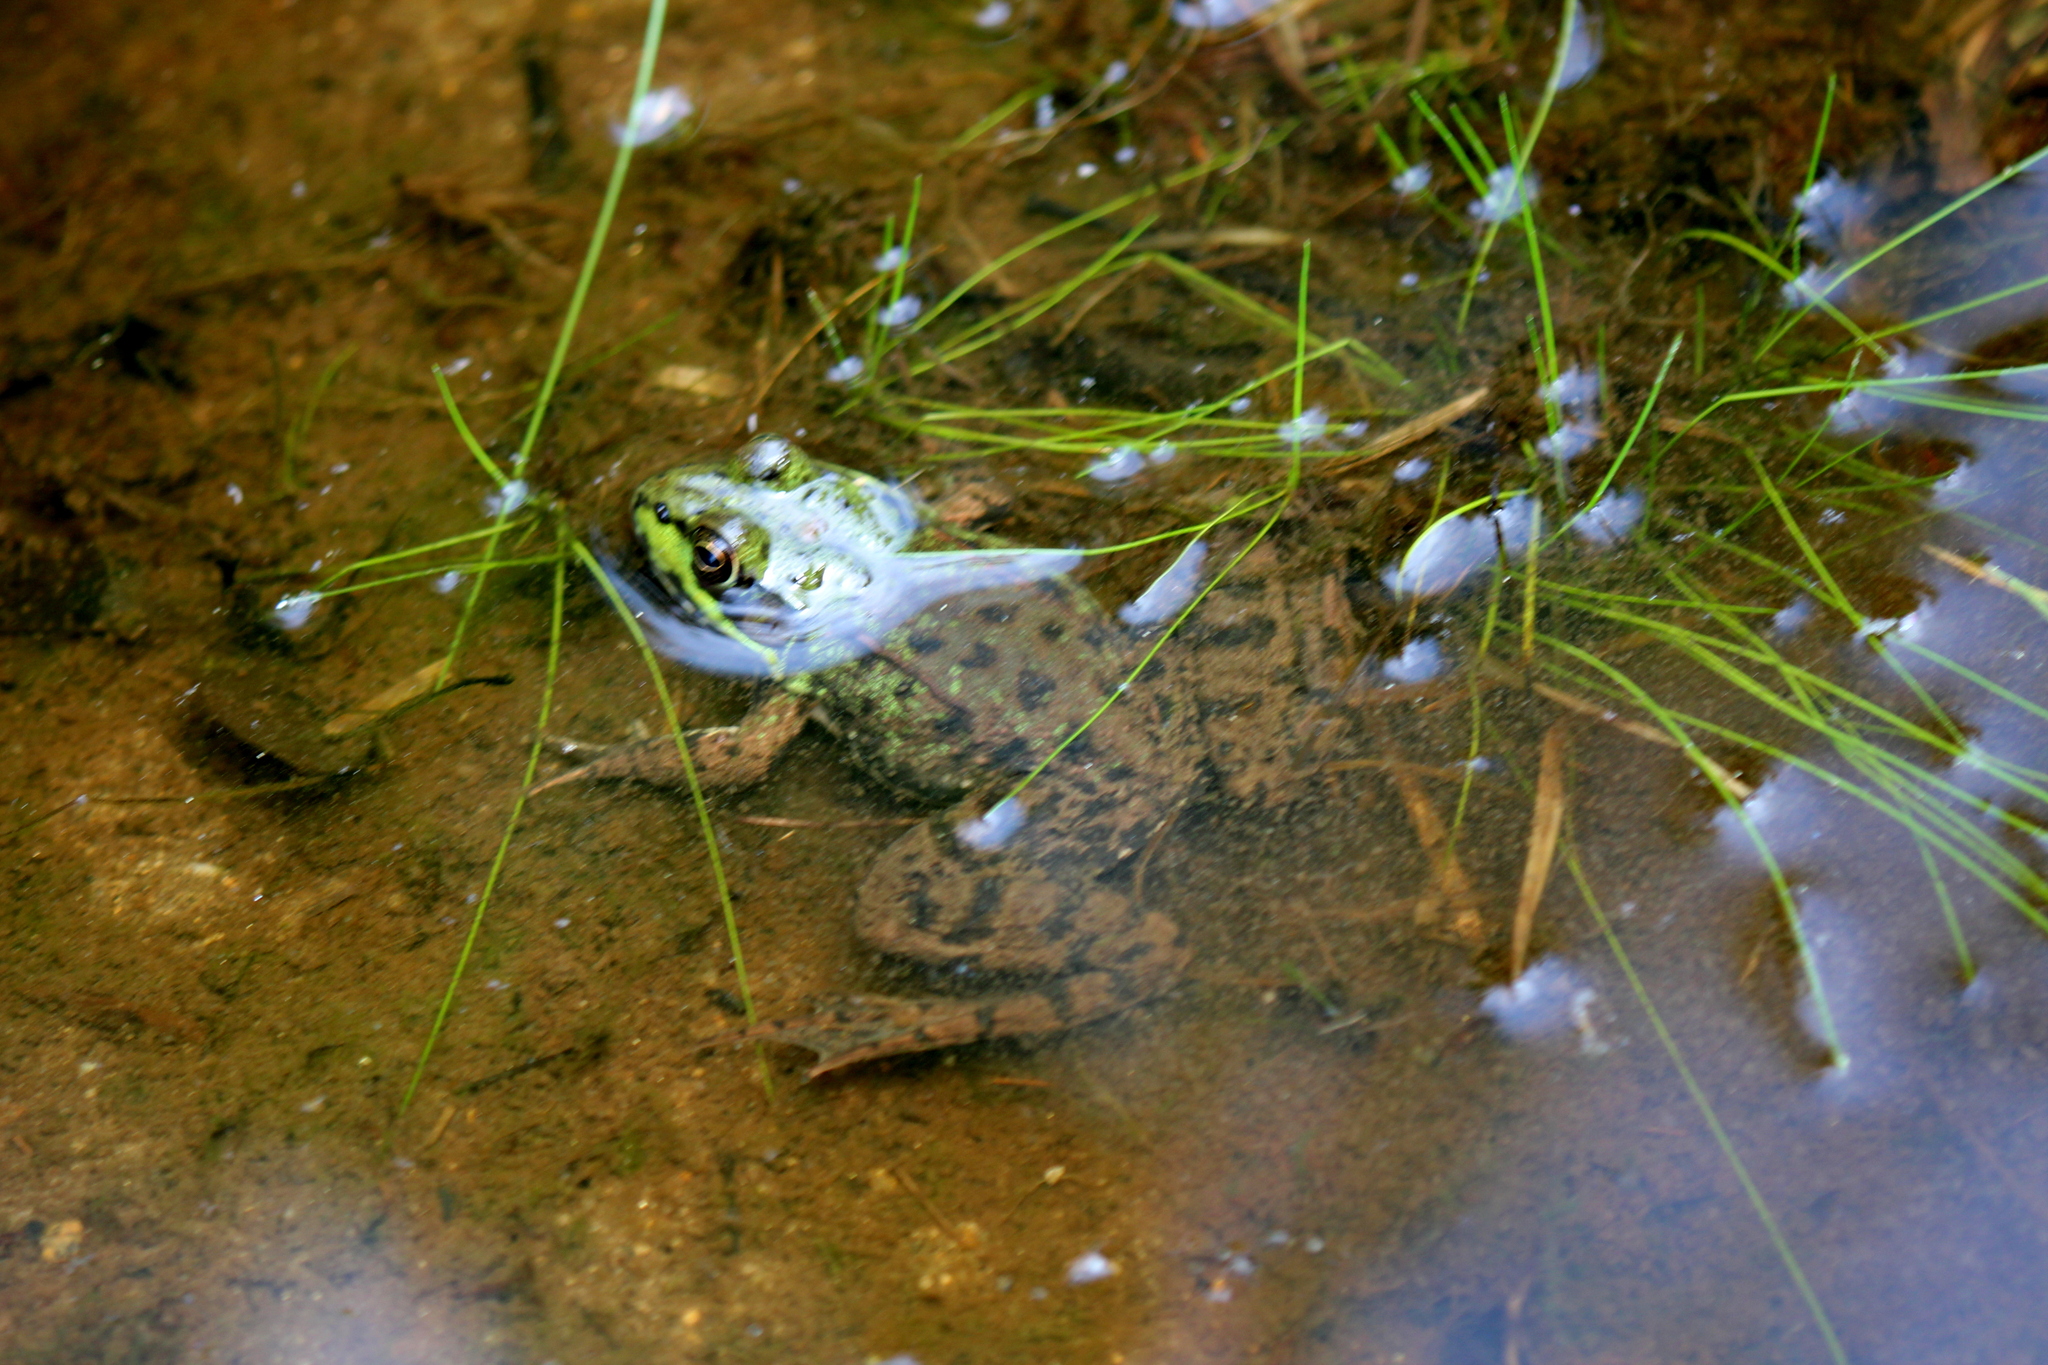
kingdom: Animalia
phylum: Chordata
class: Amphibia
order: Anura
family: Ranidae
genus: Lithobates
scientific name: Lithobates clamitans
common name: Green frog
